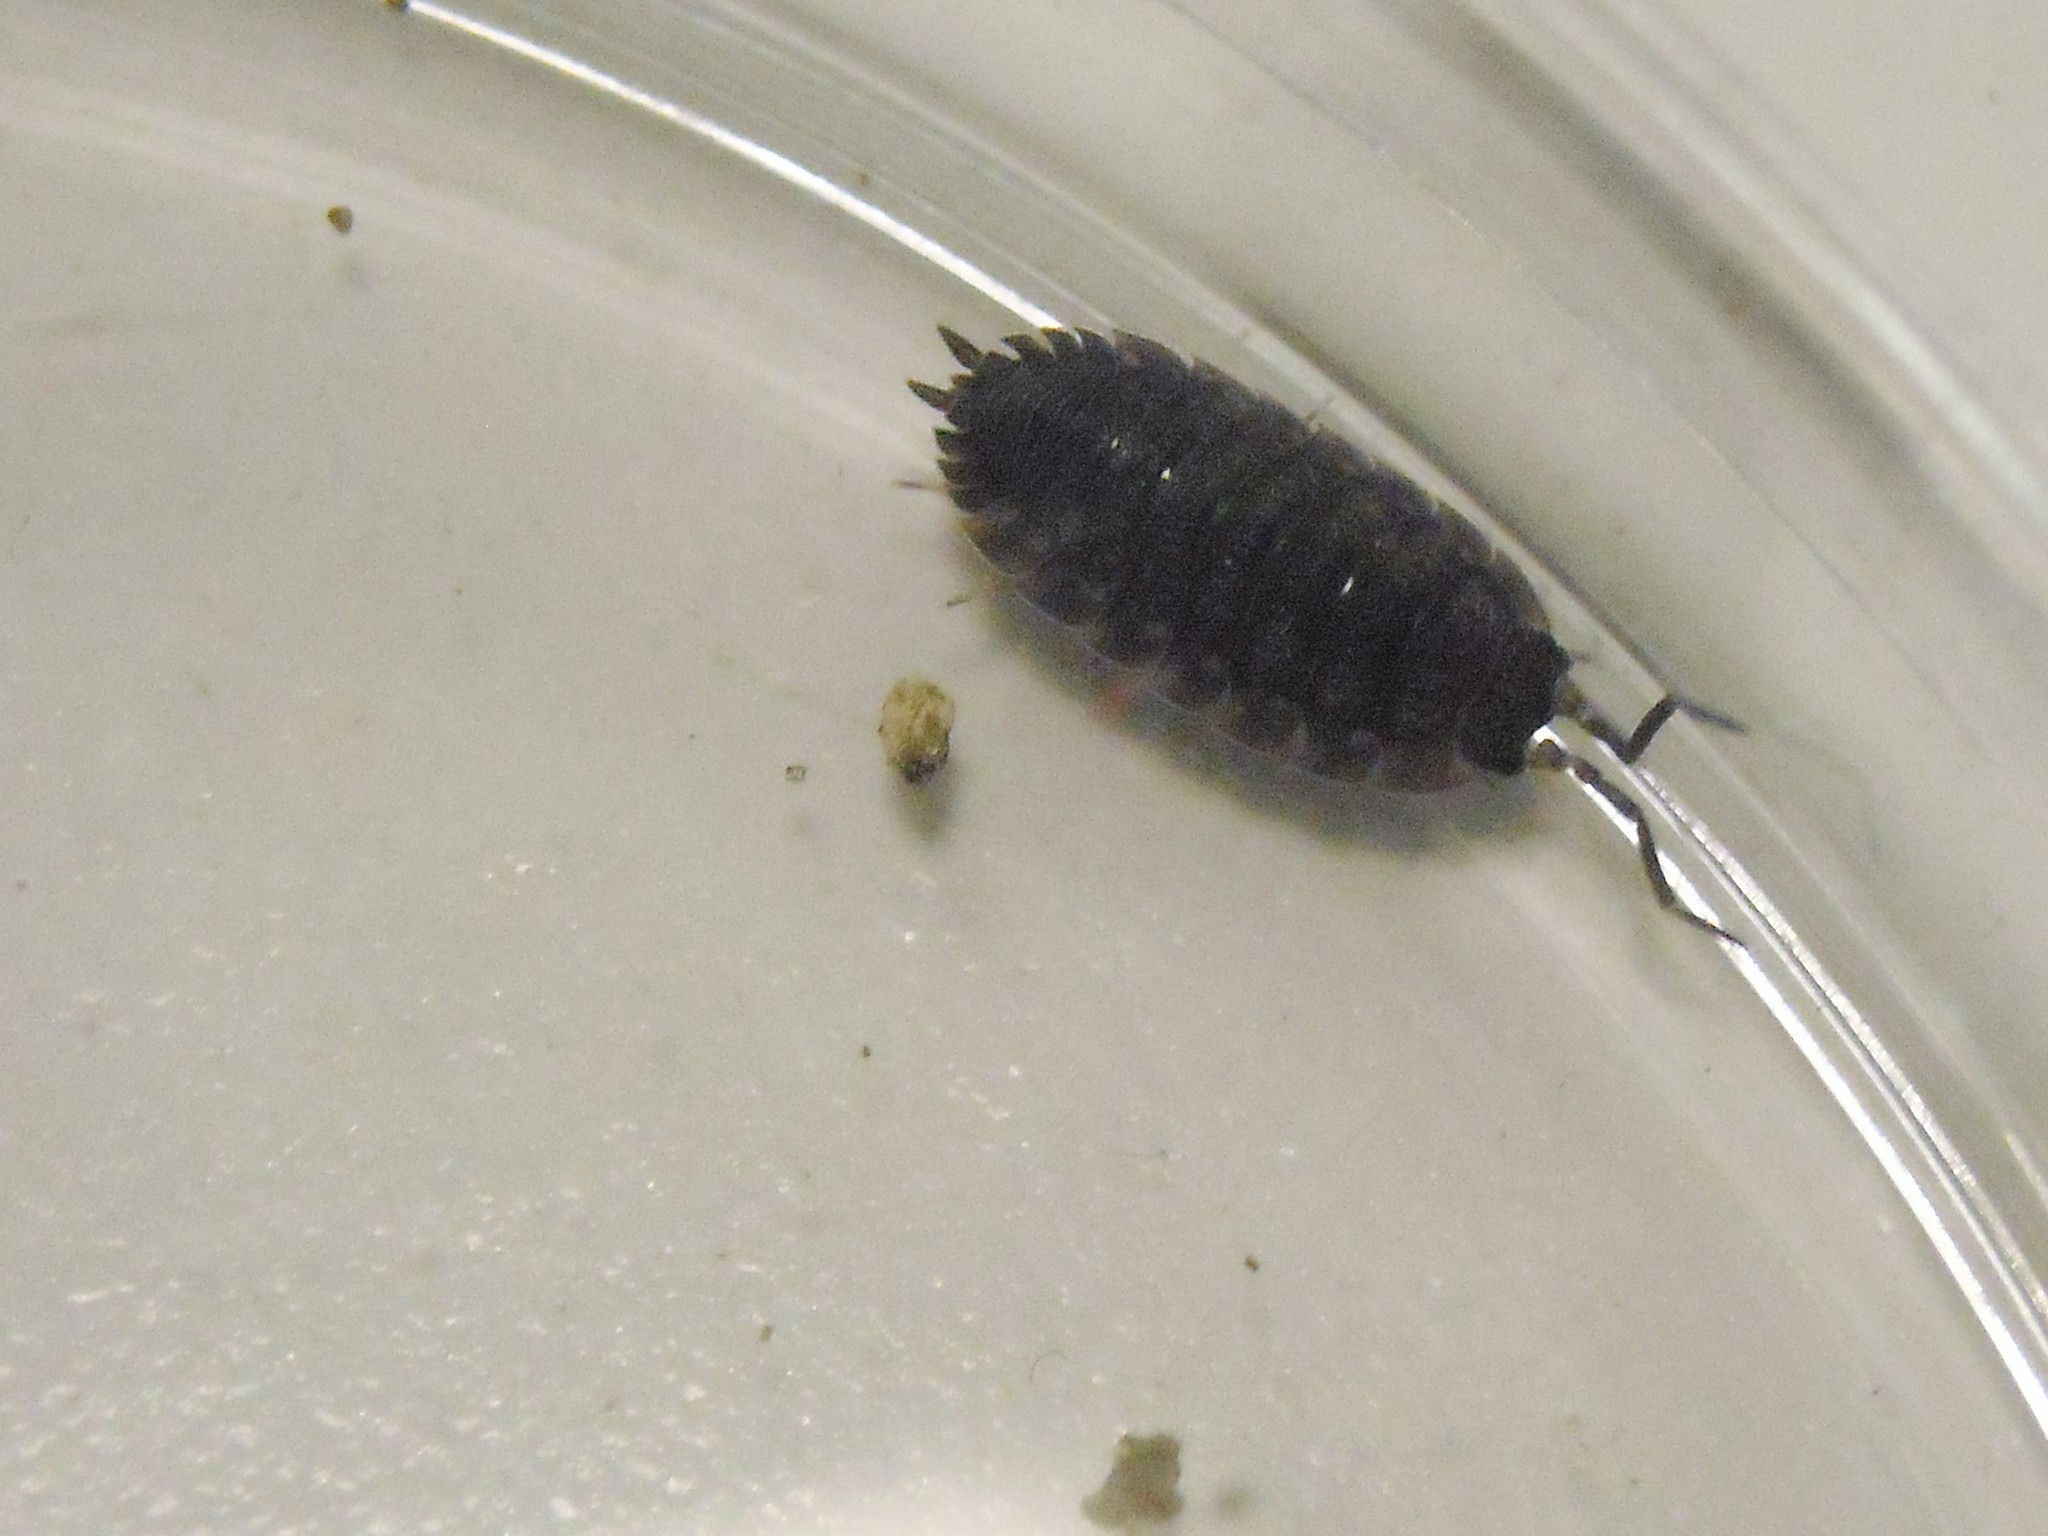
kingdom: Animalia
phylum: Arthropoda
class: Malacostraca
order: Isopoda
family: Porcellionidae
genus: Porcellio
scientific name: Porcellio scaber
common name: Common rough woodlouse
